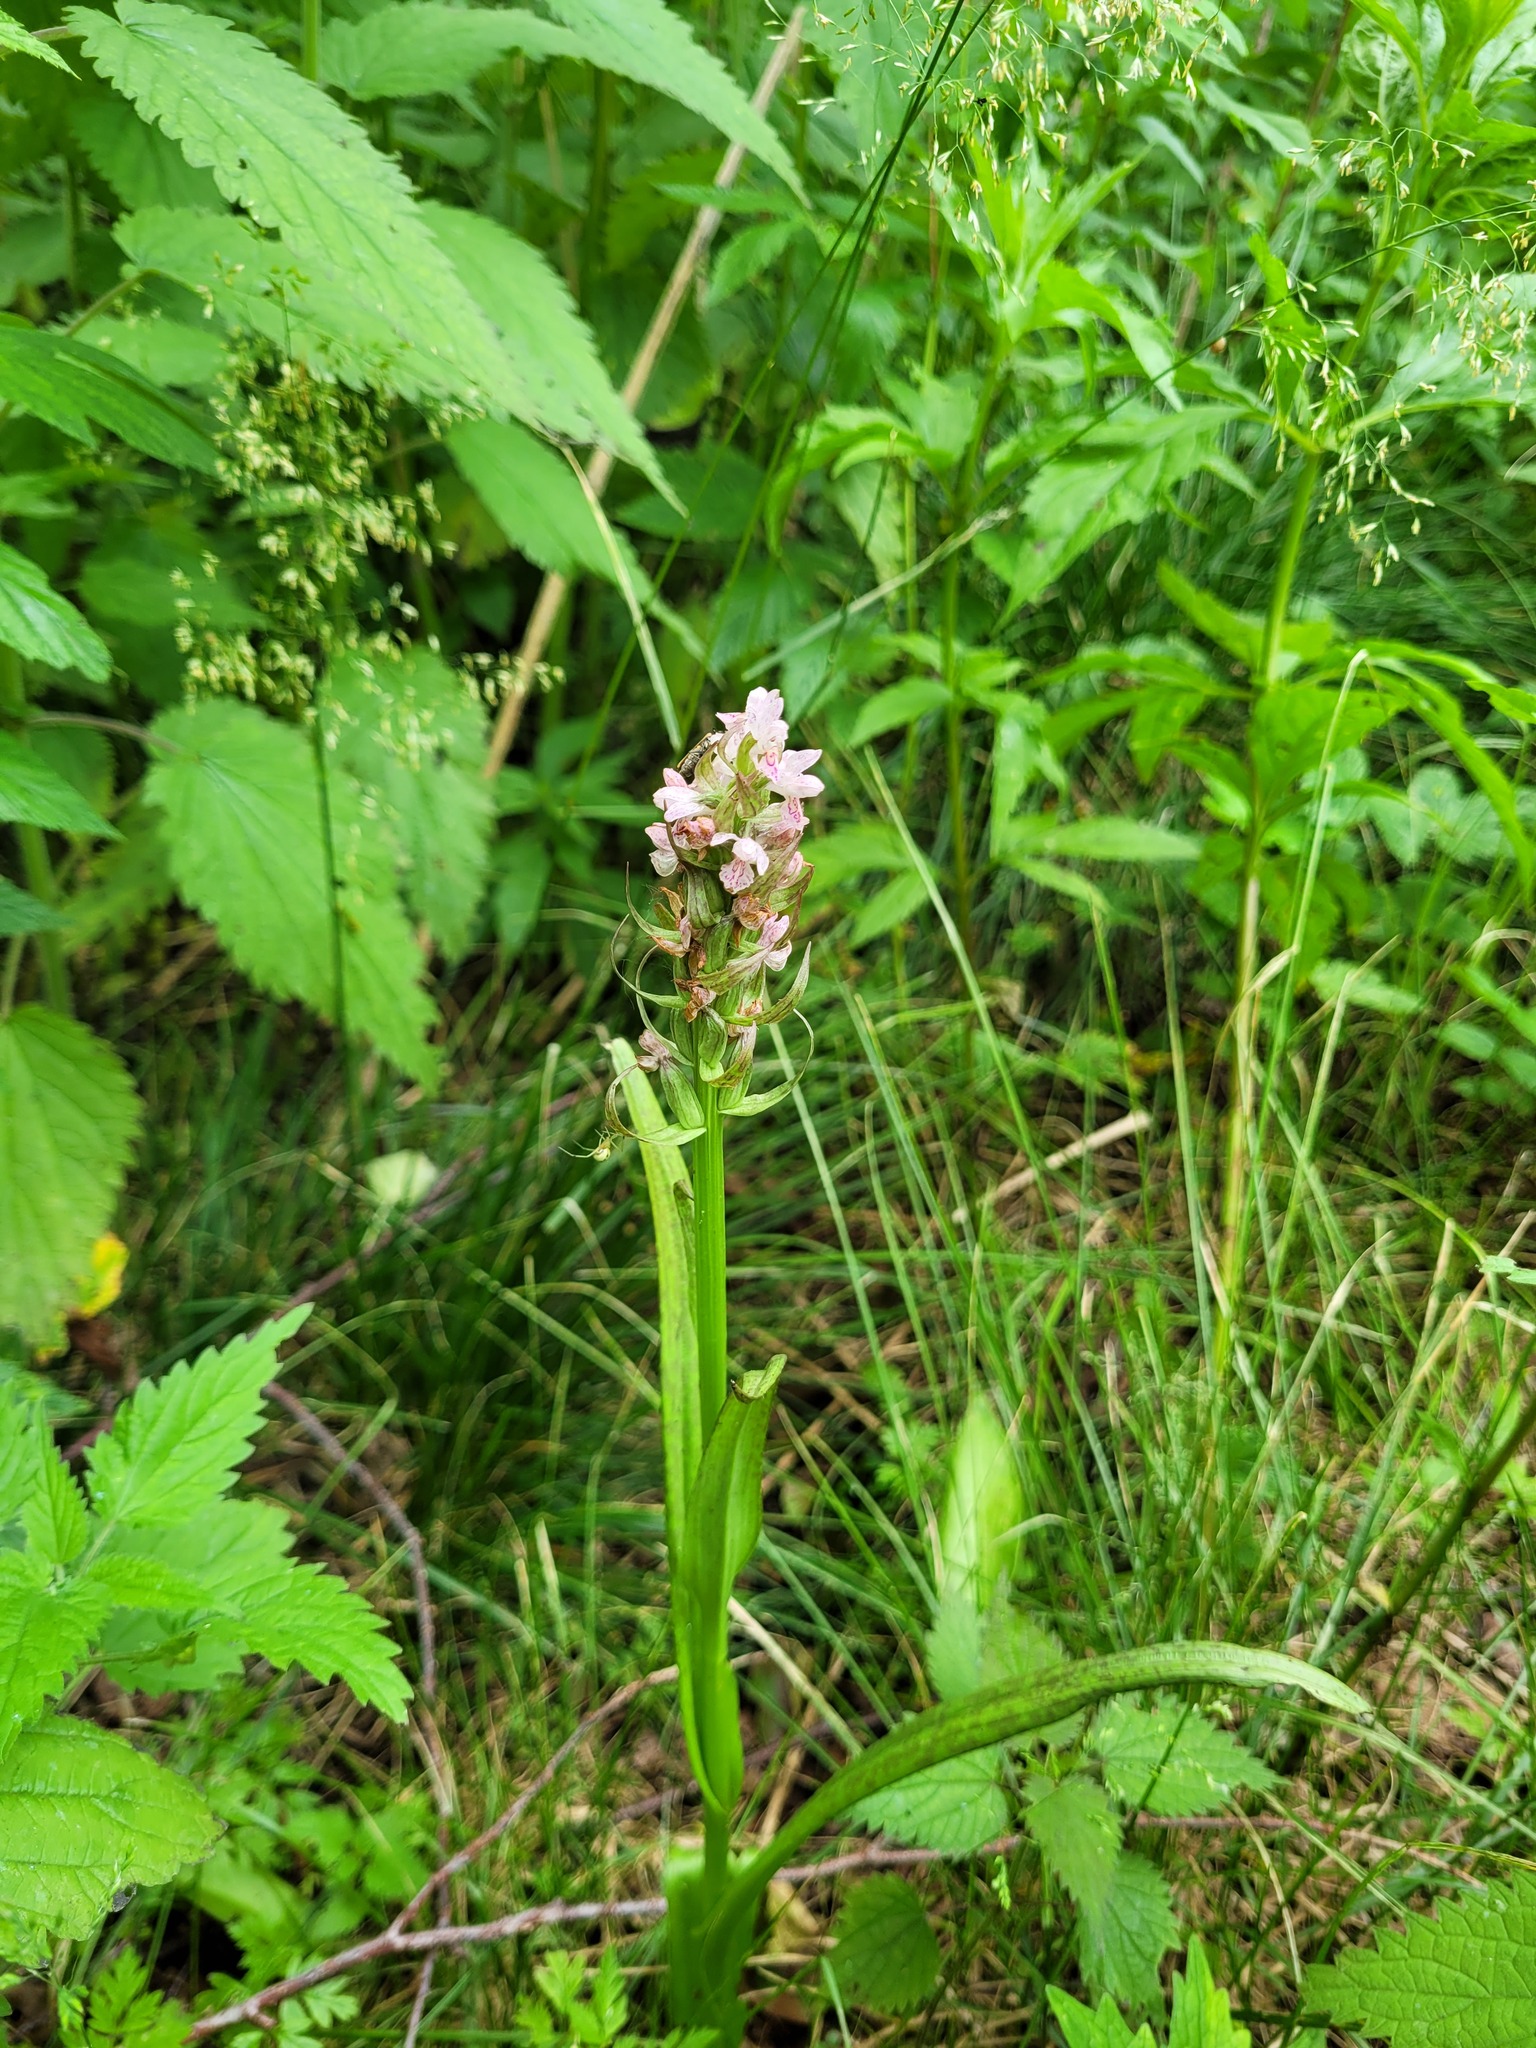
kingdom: Plantae
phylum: Tracheophyta
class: Liliopsida
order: Asparagales
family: Orchidaceae
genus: Dactylorhiza
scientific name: Dactylorhiza incarnata
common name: Early marsh-orchid
